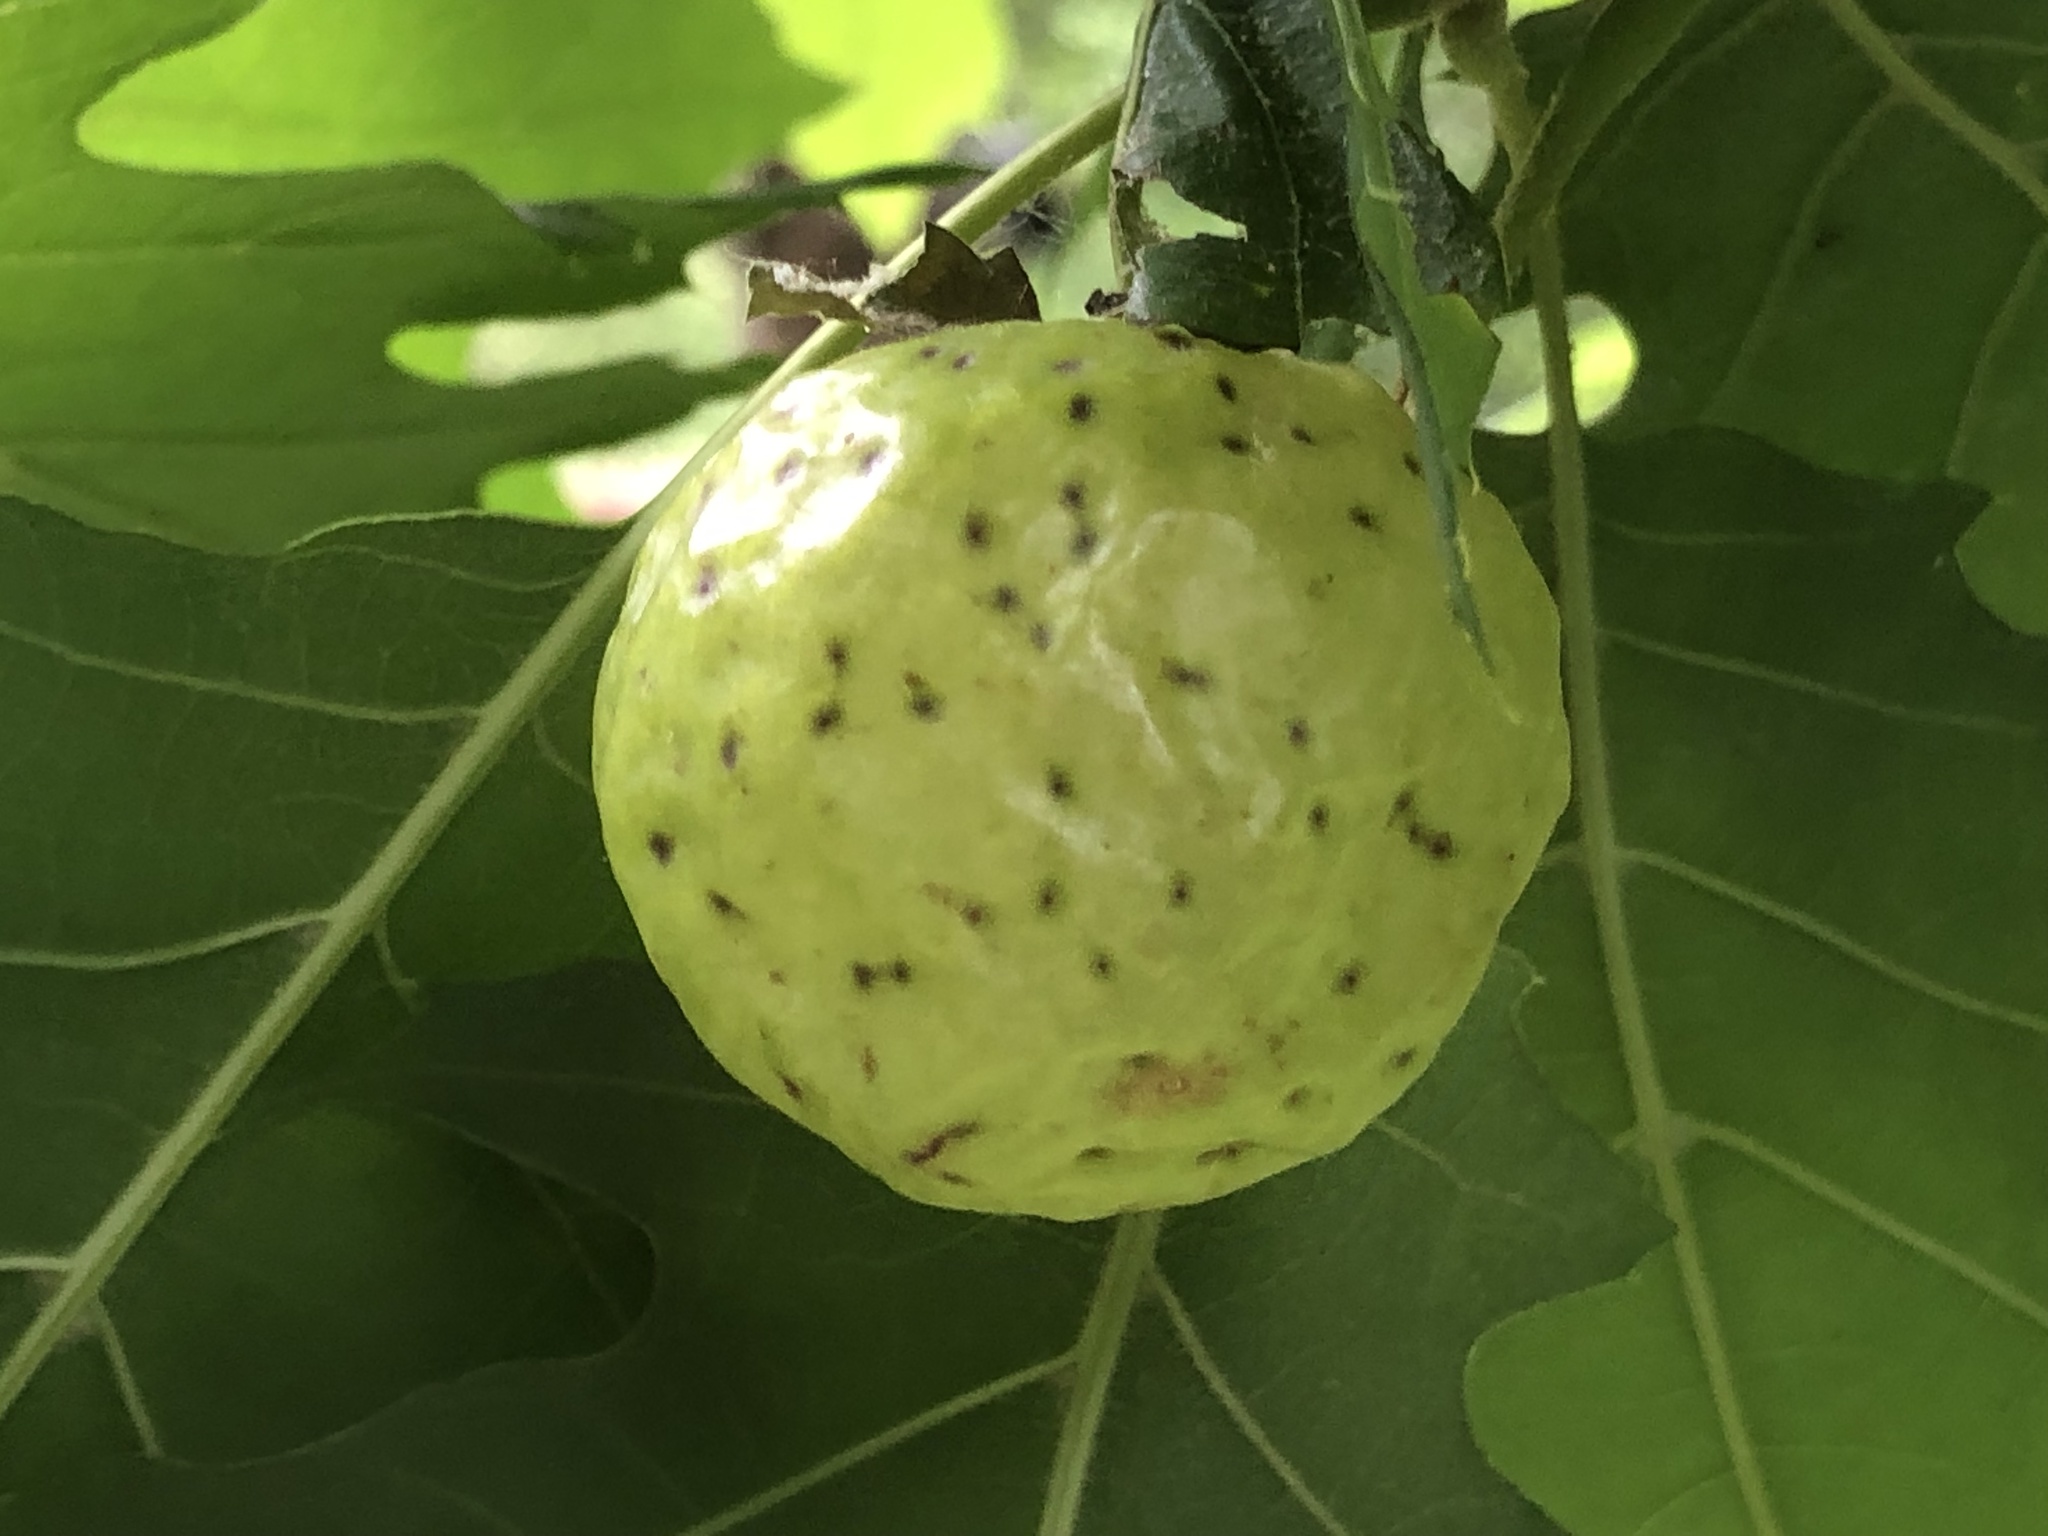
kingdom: Animalia
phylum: Arthropoda
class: Insecta
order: Hymenoptera
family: Cynipidae
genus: Amphibolips
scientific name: Amphibolips
